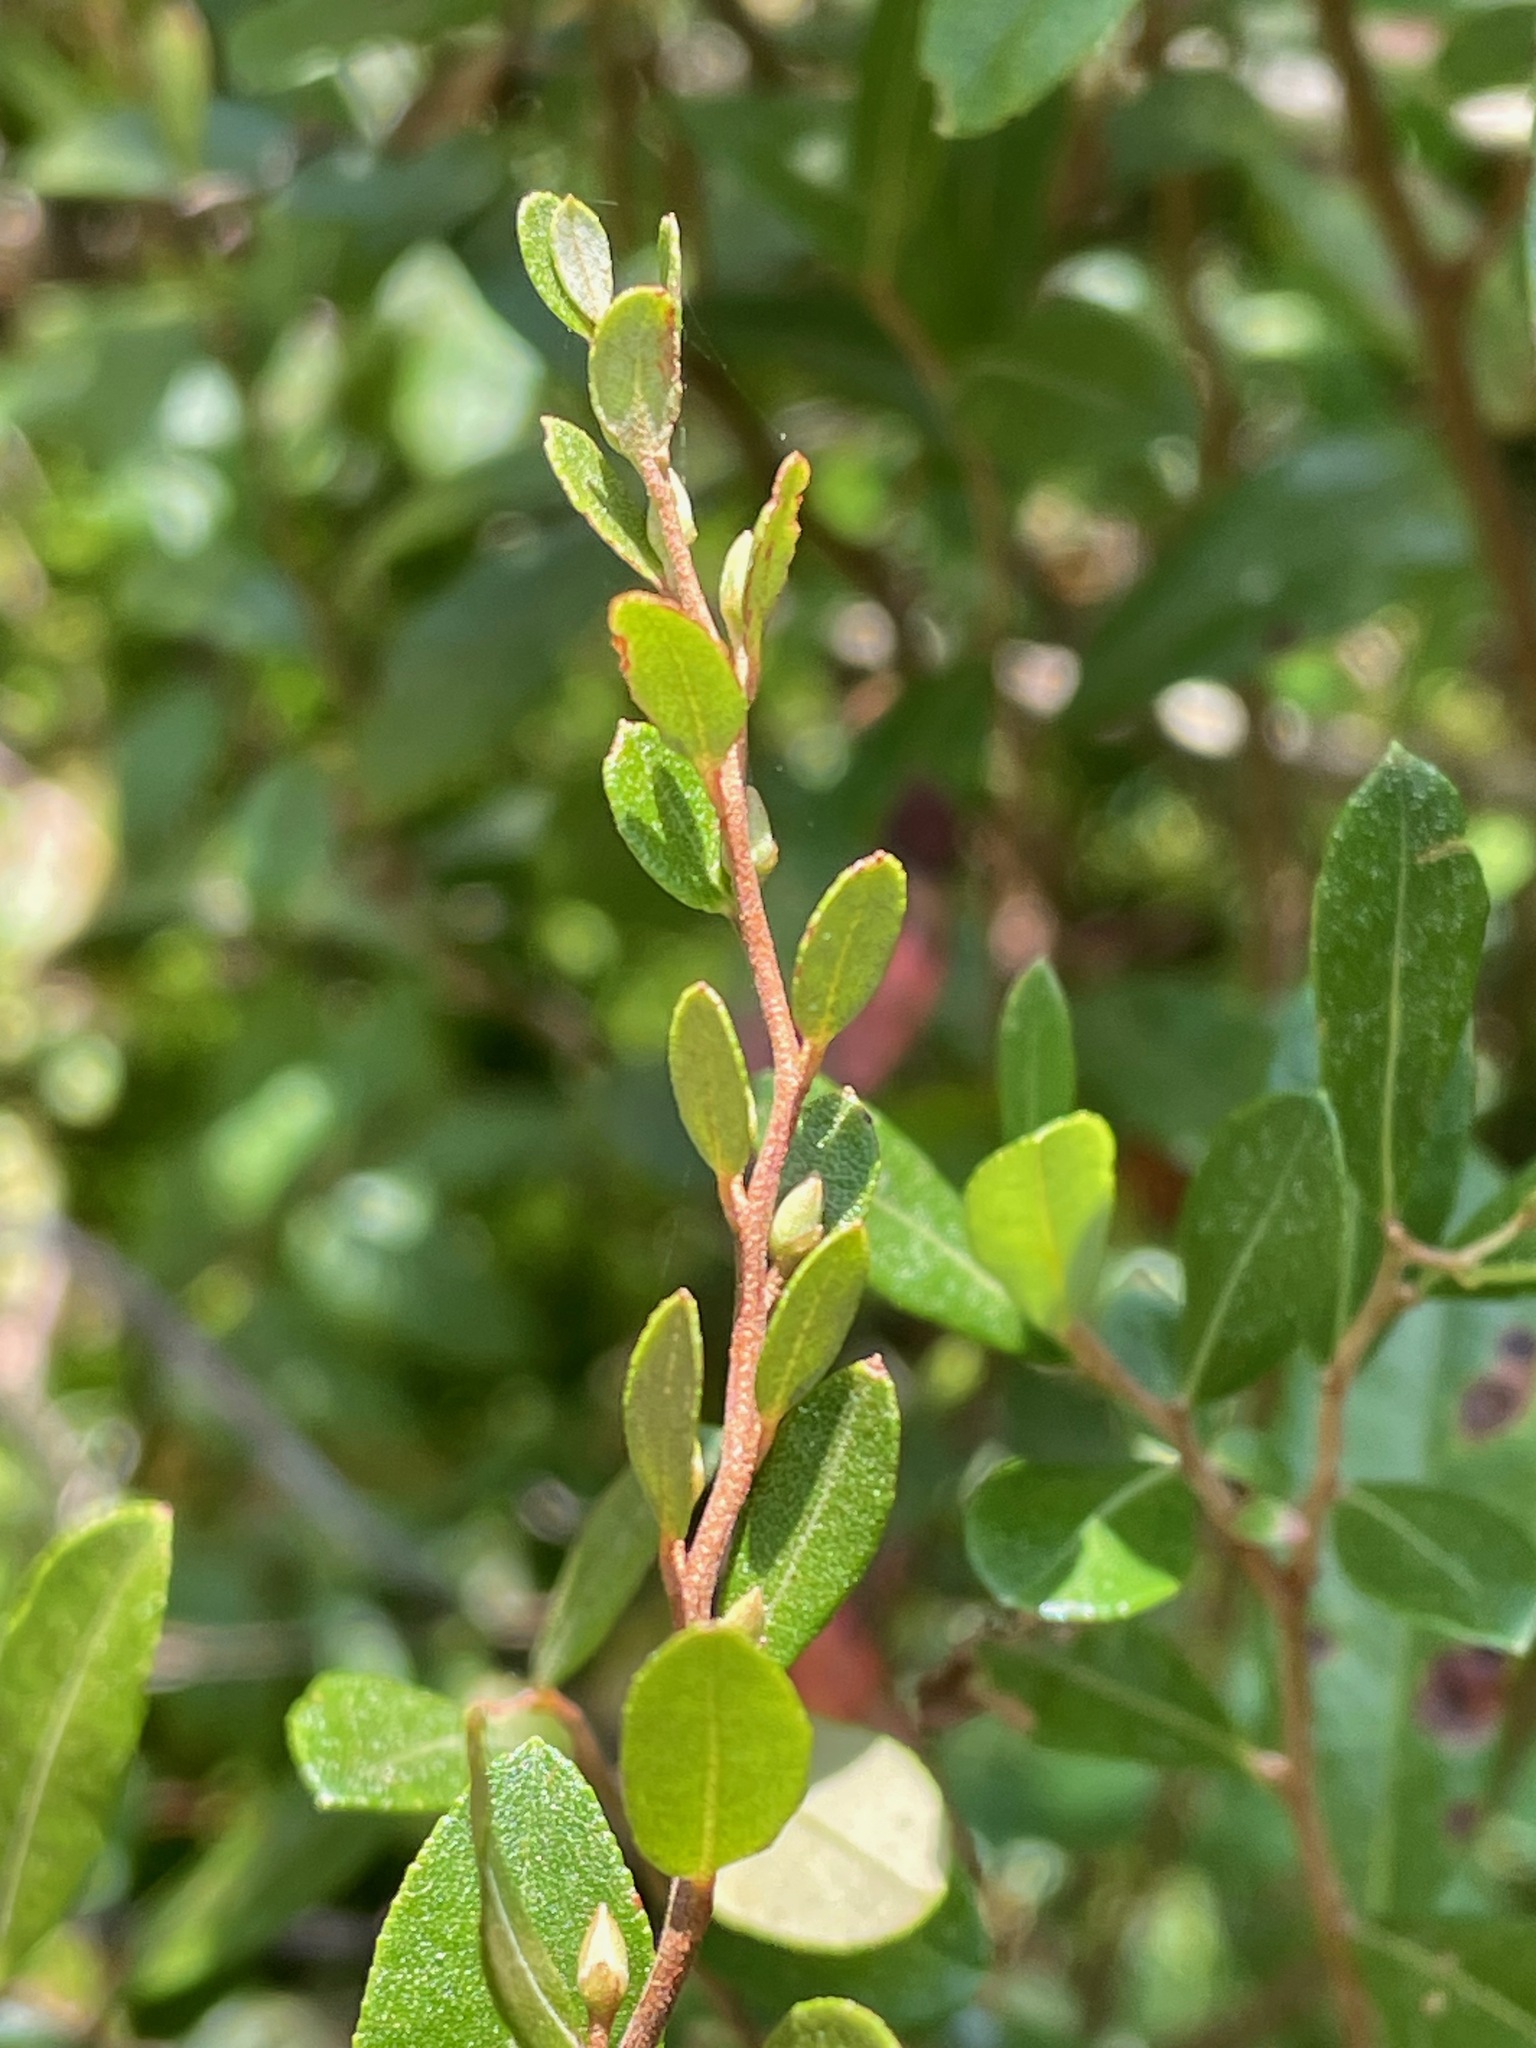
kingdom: Plantae
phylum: Tracheophyta
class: Magnoliopsida
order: Ericales
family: Ericaceae
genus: Chamaedaphne
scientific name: Chamaedaphne calyculata
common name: Leatherleaf
